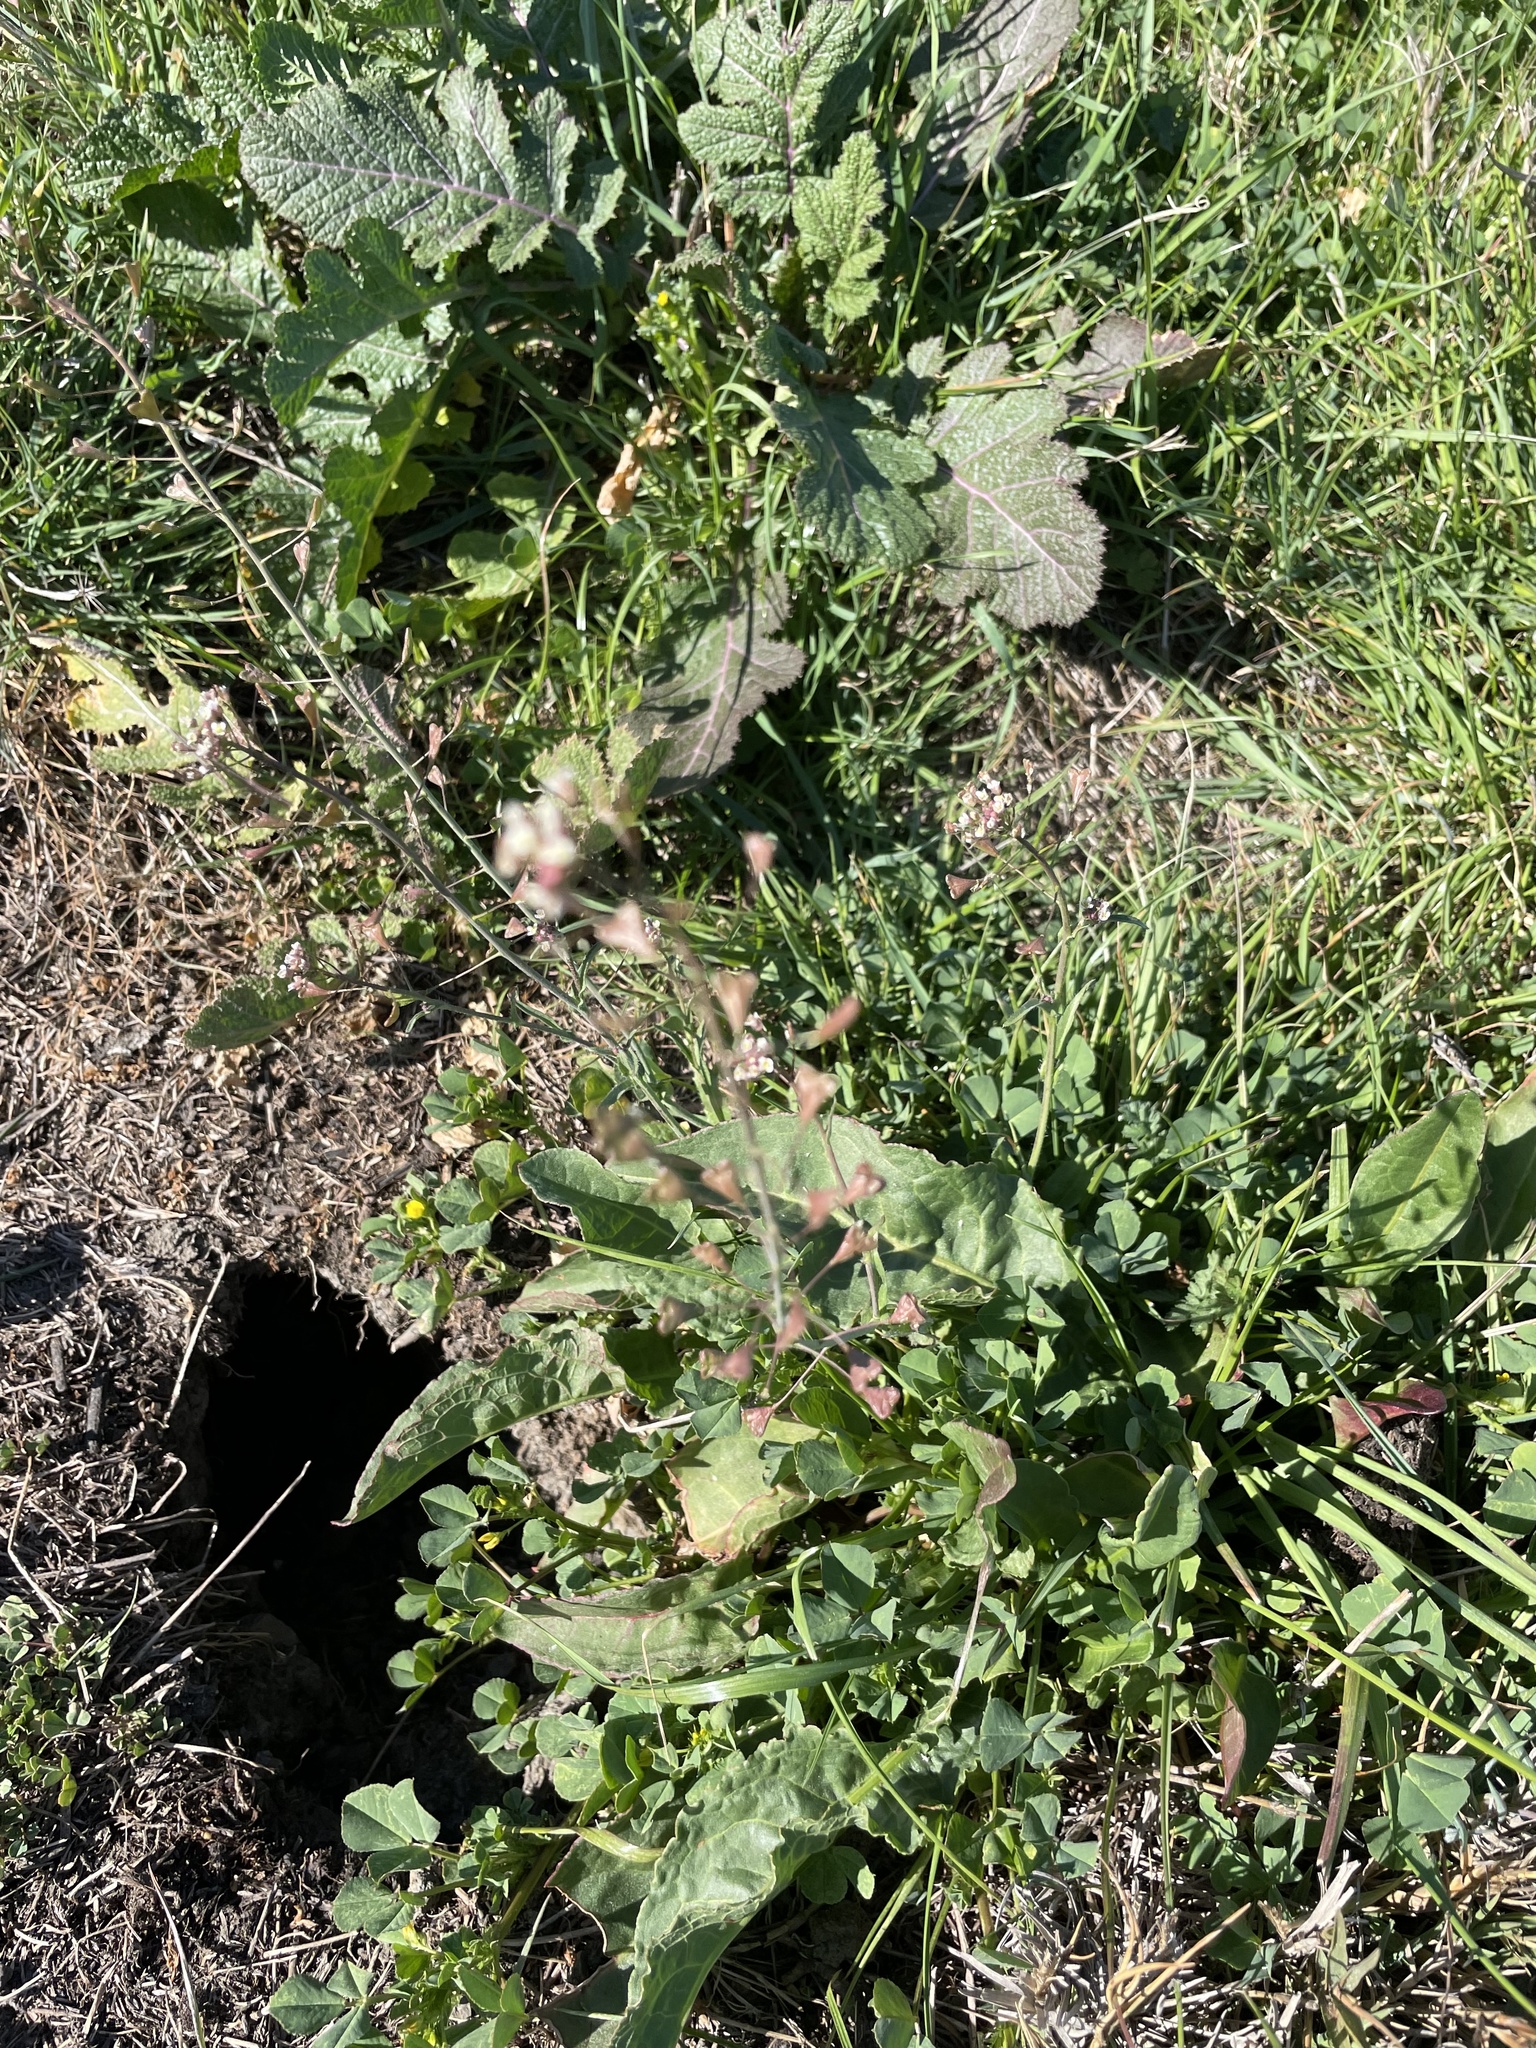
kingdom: Plantae
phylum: Tracheophyta
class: Magnoliopsida
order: Brassicales
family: Brassicaceae
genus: Capsella
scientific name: Capsella bursa-pastoris
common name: Shepherd's purse
